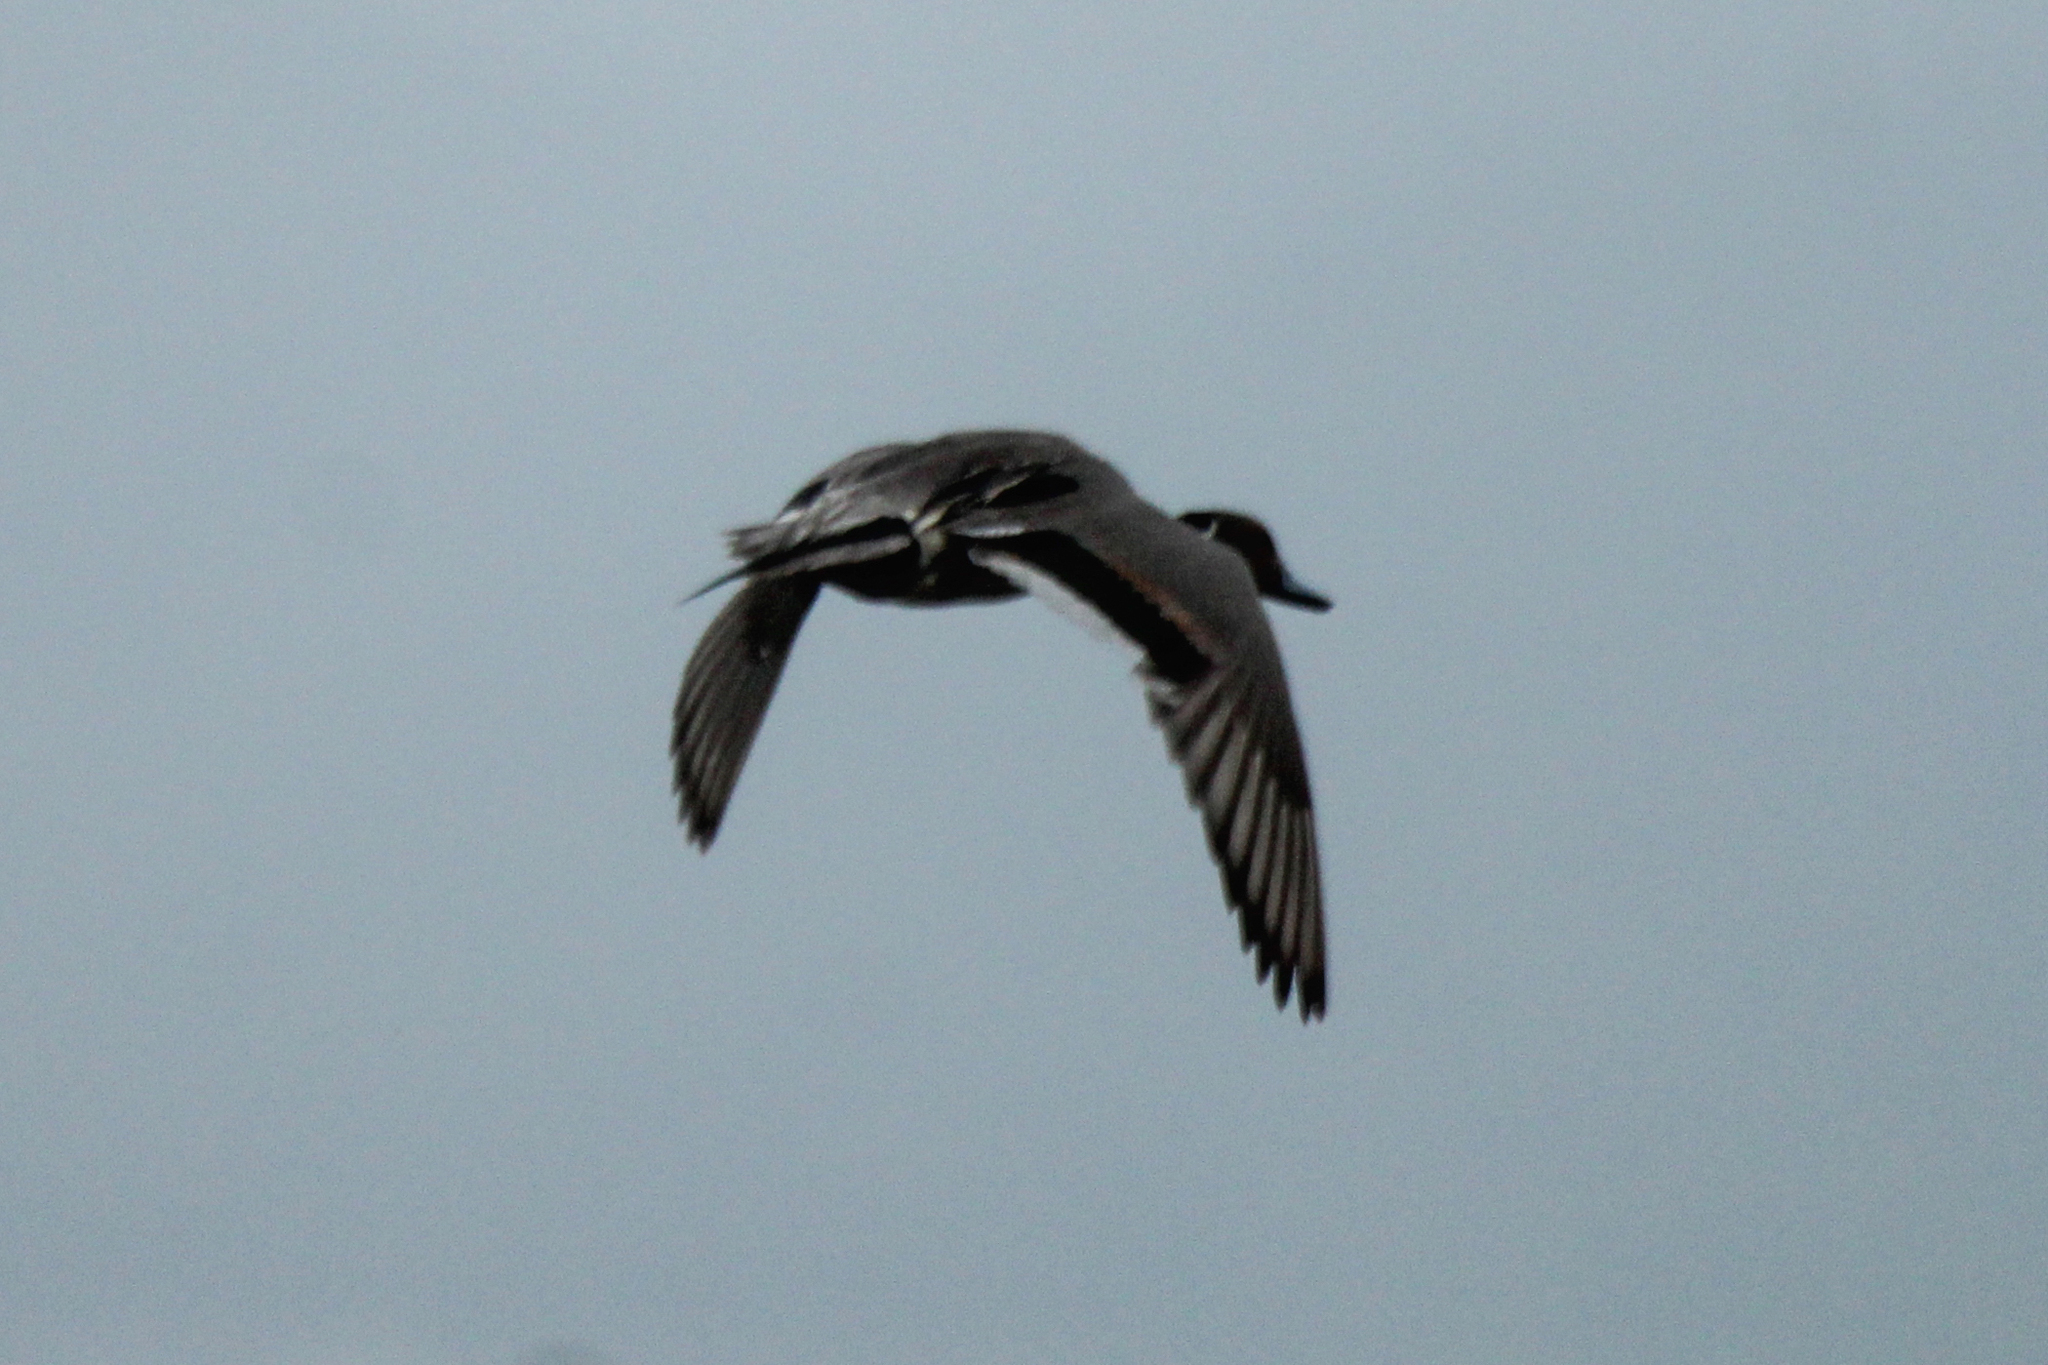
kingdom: Animalia
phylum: Chordata
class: Aves
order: Anseriformes
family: Anatidae
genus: Anas
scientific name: Anas acuta
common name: Northern pintail
